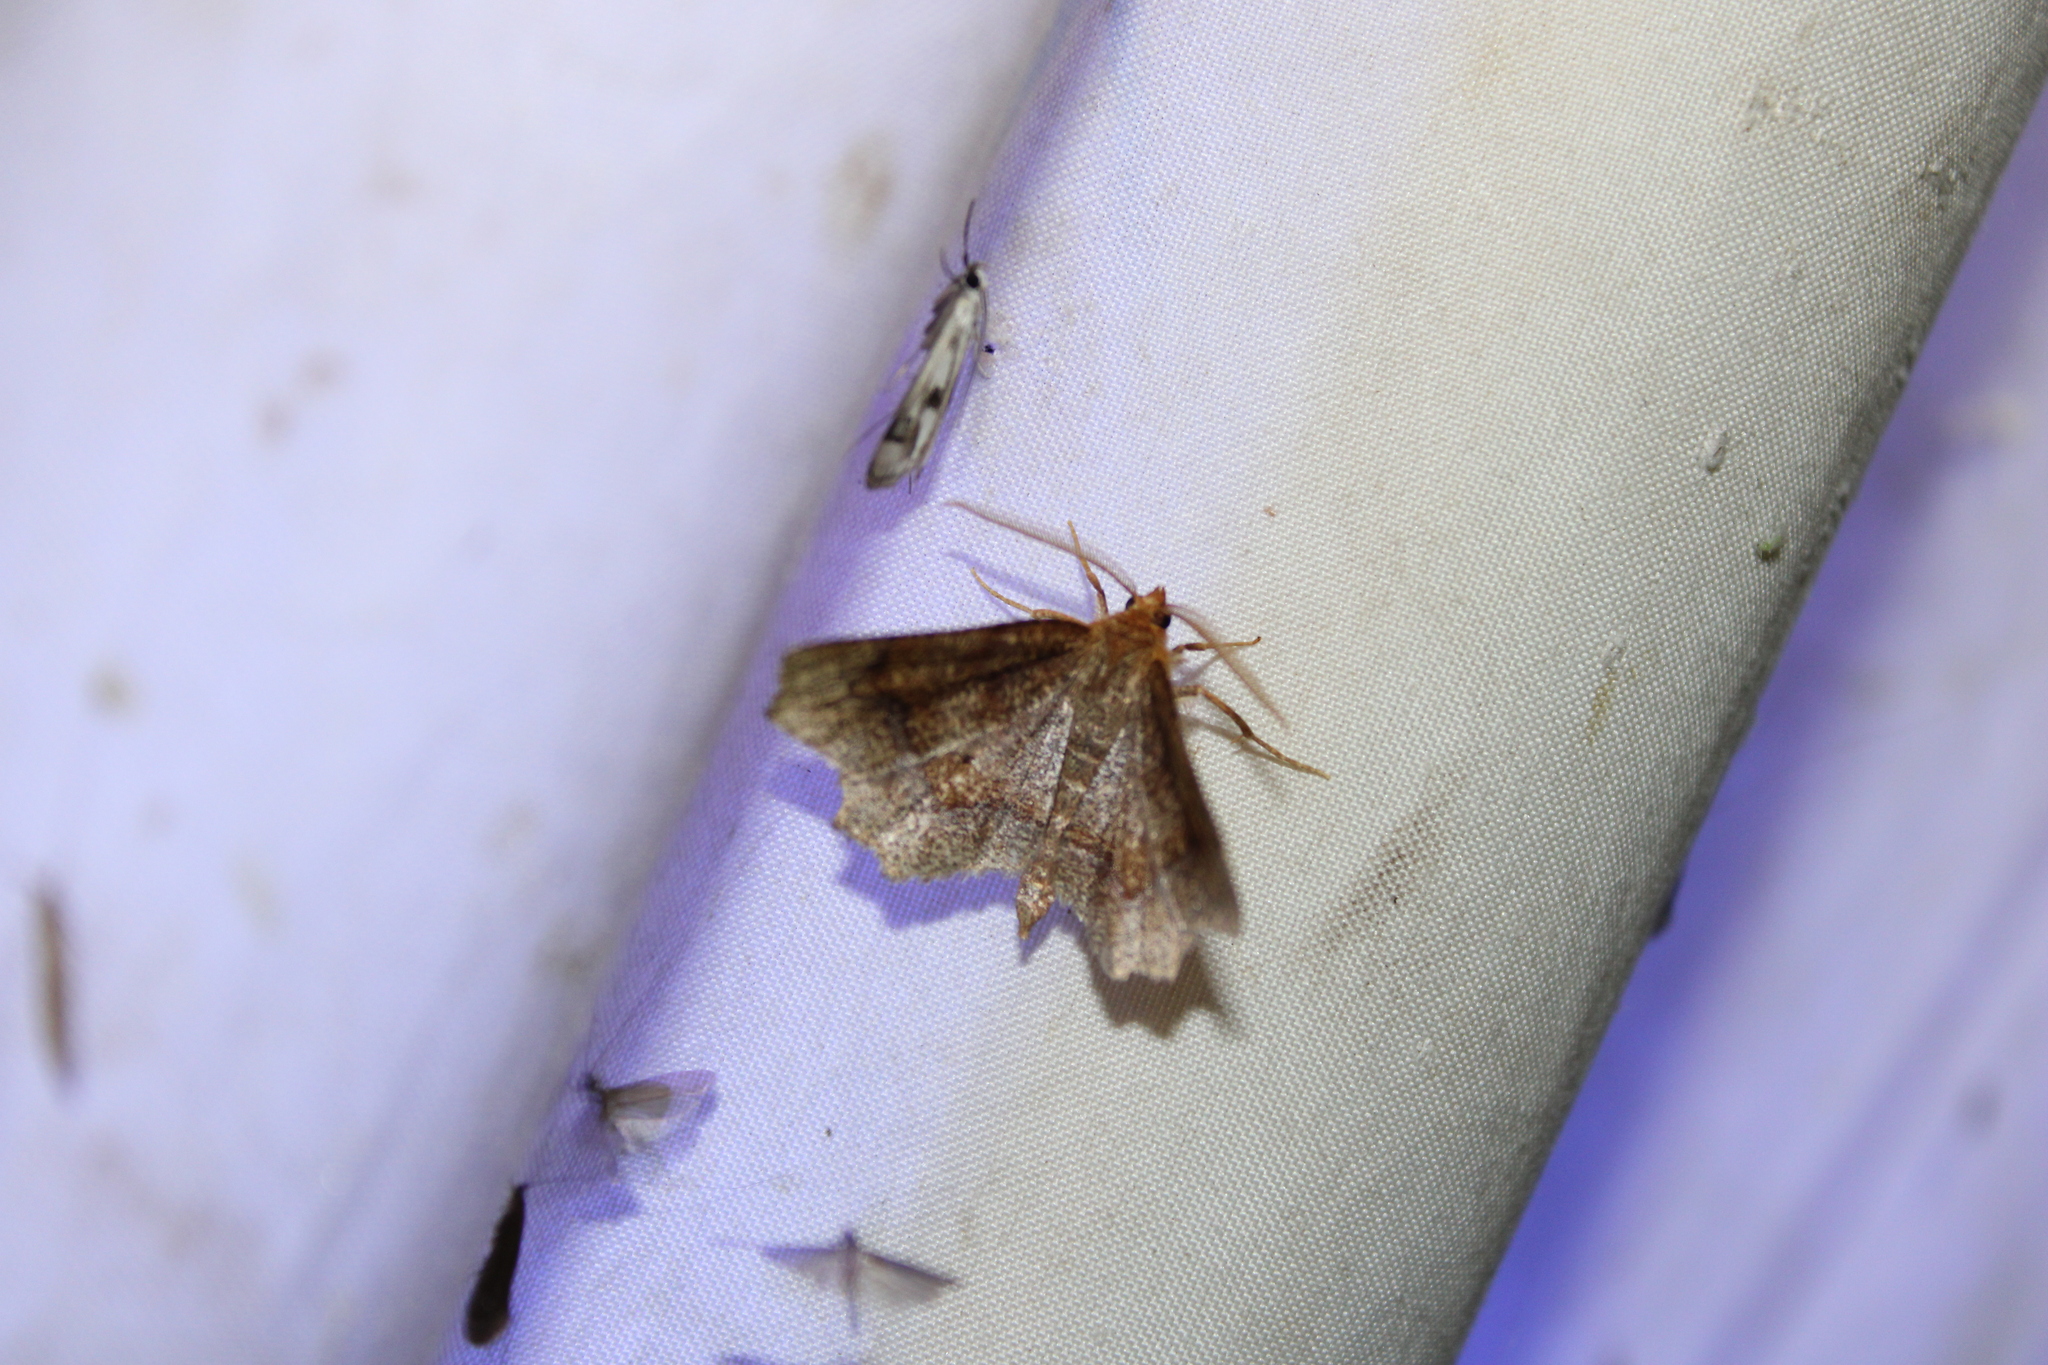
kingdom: Animalia
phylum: Arthropoda
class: Insecta
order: Lepidoptera
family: Geometridae
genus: Metarranthis
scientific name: Metarranthis hypochraria
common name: Common metarranthis
